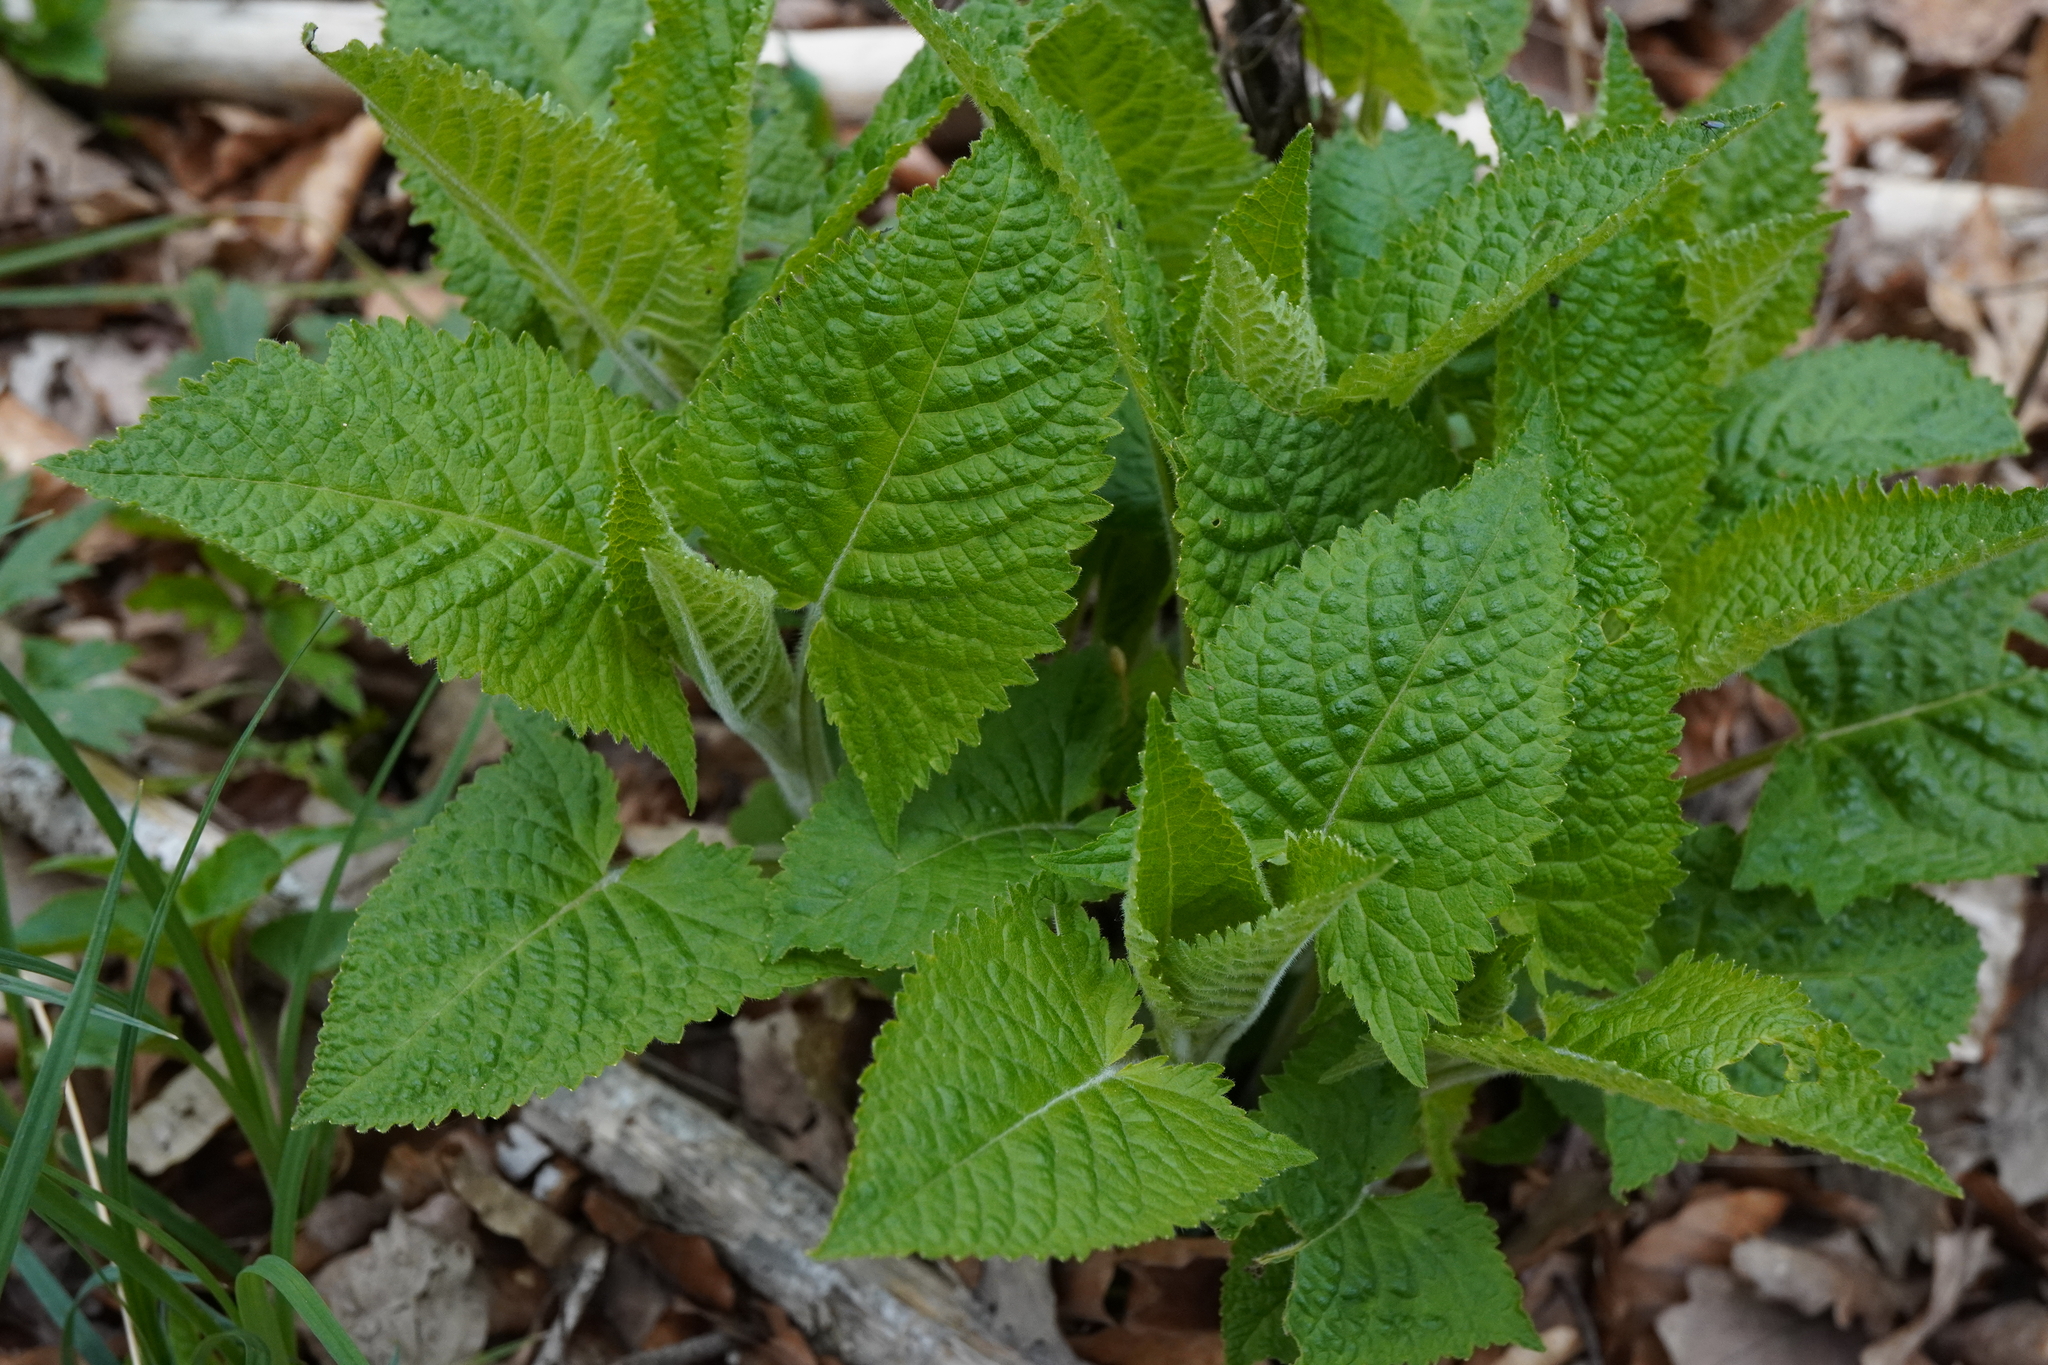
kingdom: Plantae
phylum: Tracheophyta
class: Magnoliopsida
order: Lamiales
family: Lamiaceae
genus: Salvia
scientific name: Salvia glutinosa
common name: Sticky clary
